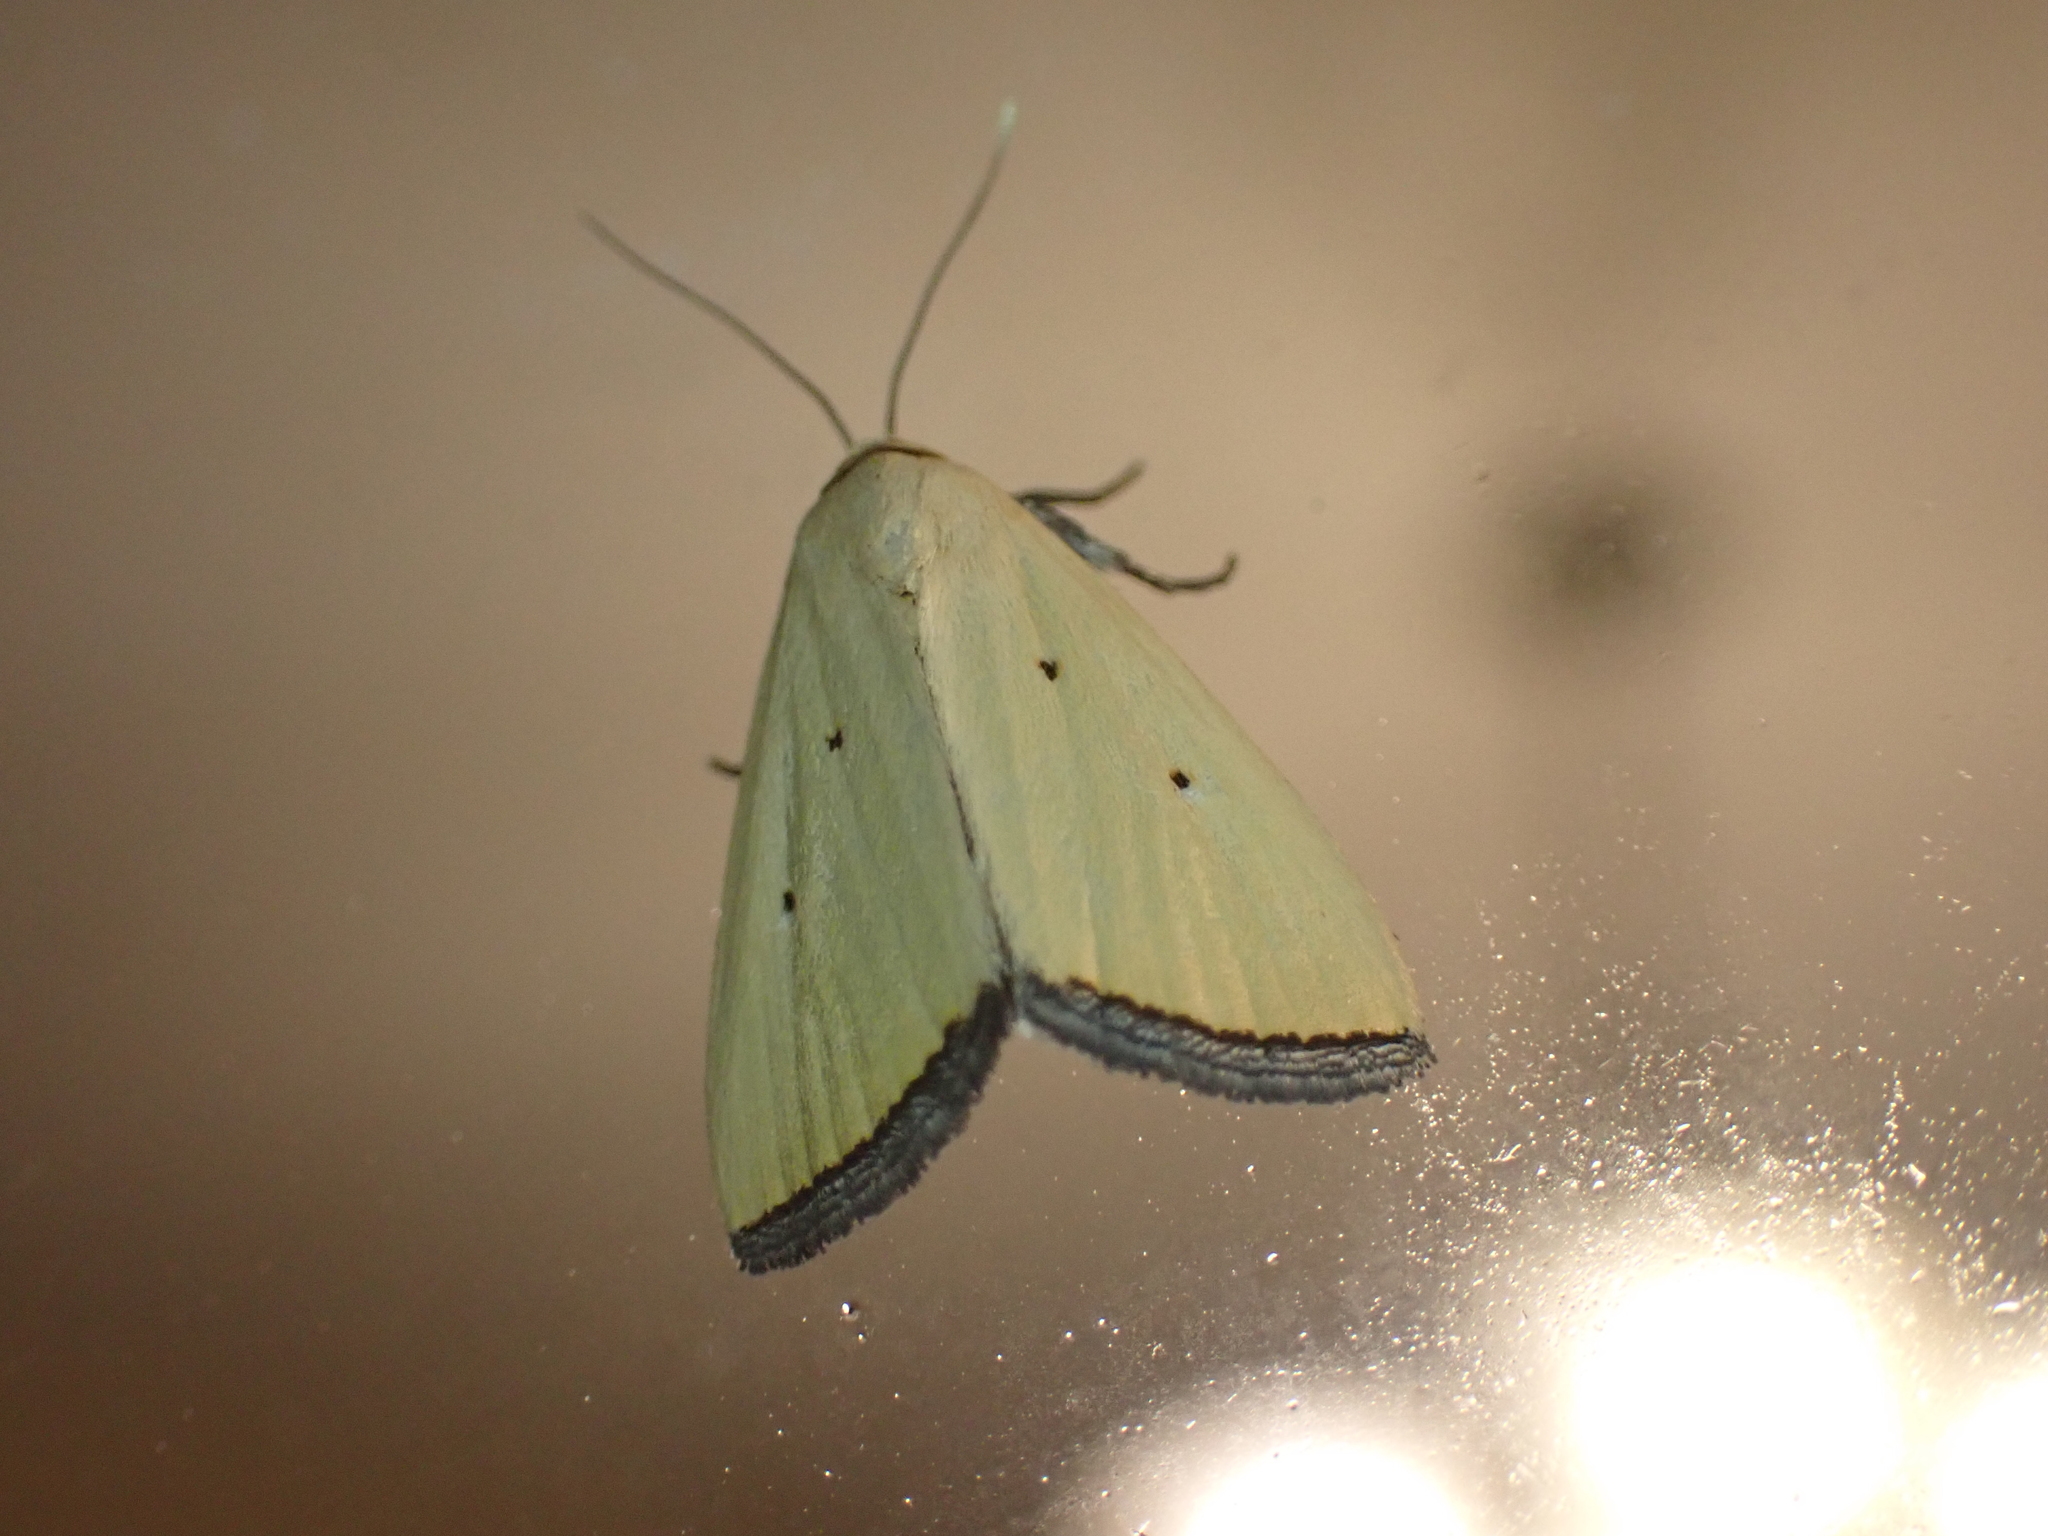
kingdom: Animalia
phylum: Arthropoda
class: Insecta
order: Lepidoptera
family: Noctuidae
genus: Marimatha
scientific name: Marimatha nigrofimbria
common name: Black-bordered lemon moth
